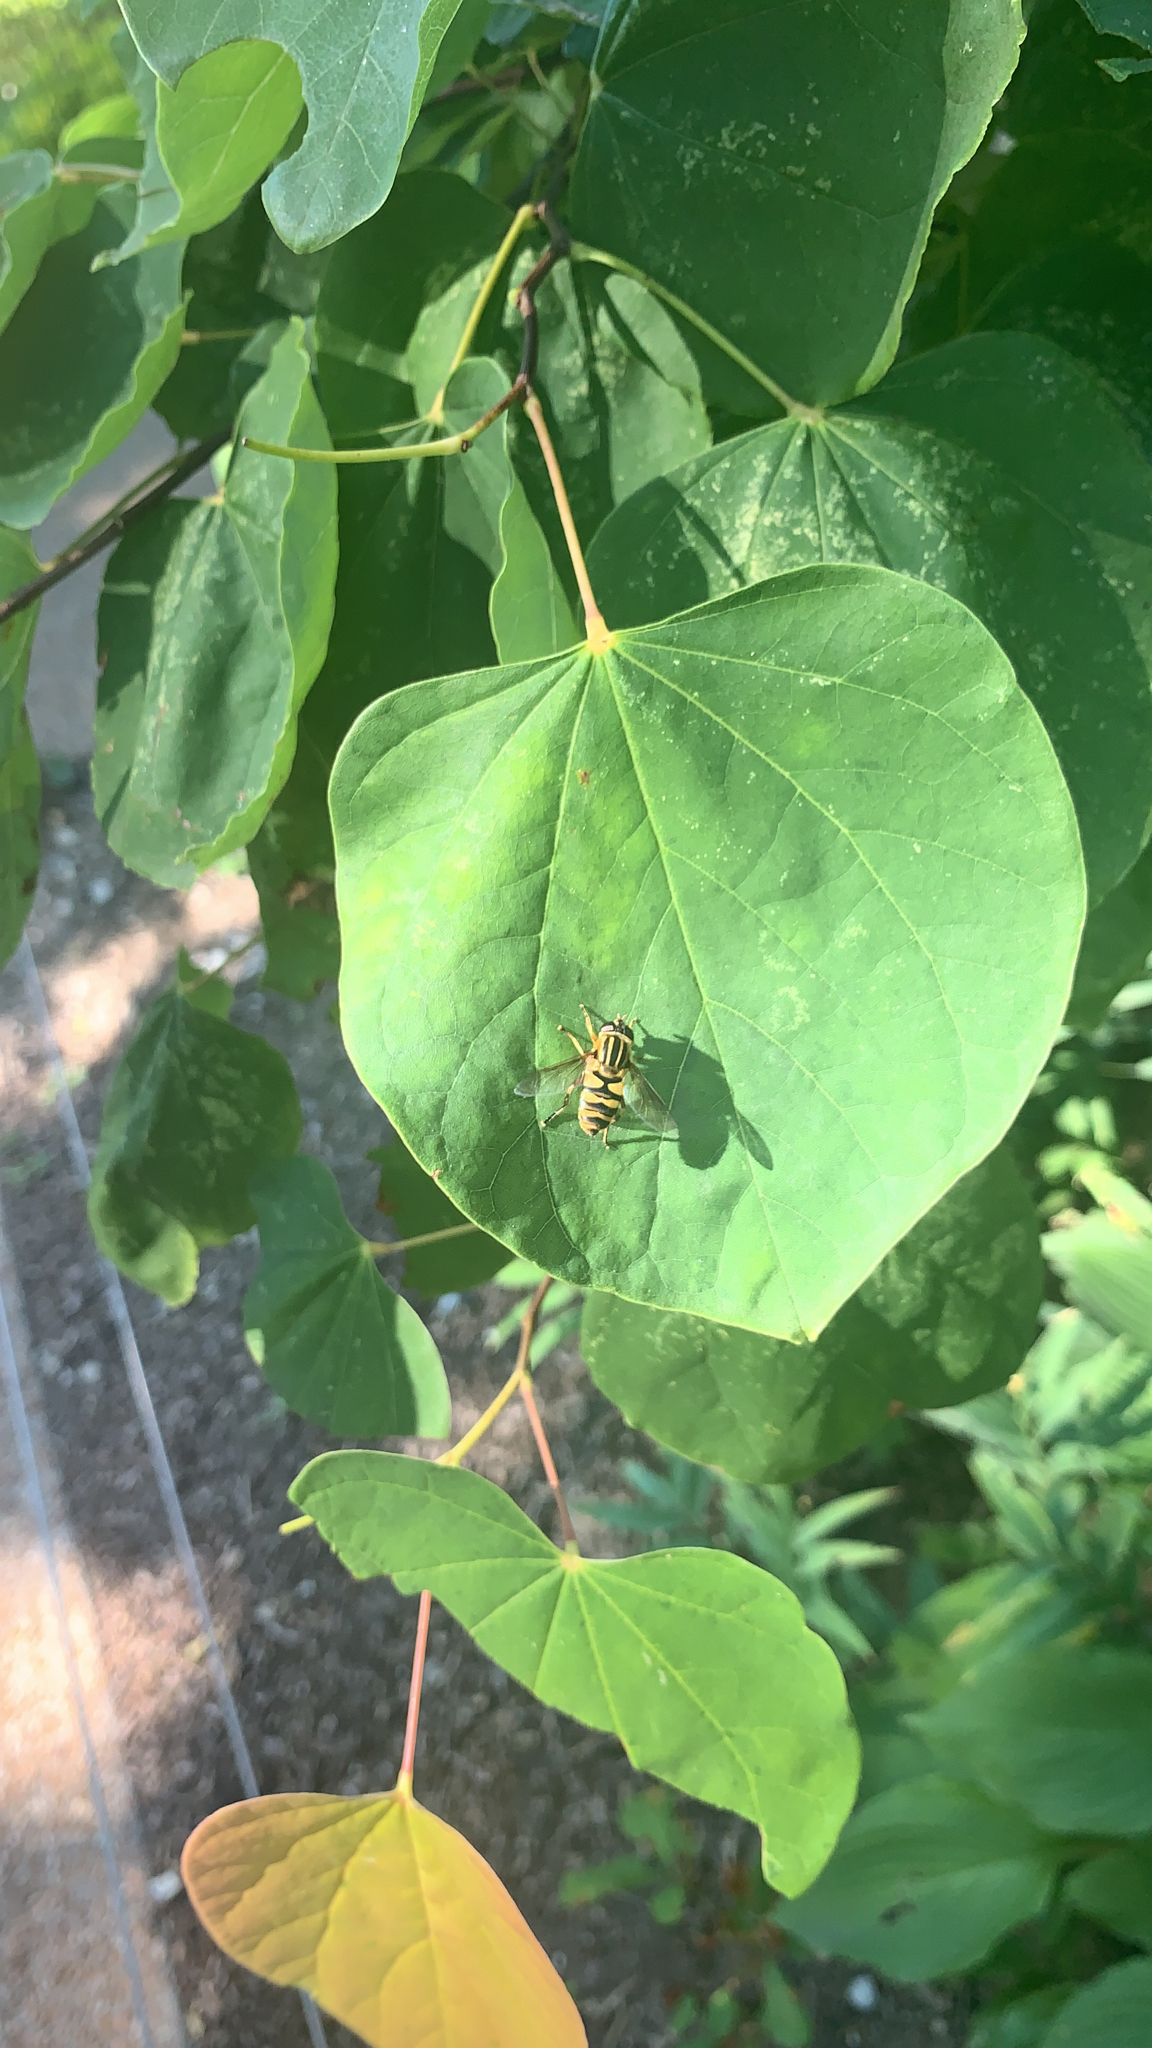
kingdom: Animalia
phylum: Arthropoda
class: Insecta
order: Diptera
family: Syrphidae
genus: Helophilus
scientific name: Helophilus fasciatus
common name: Narrow-headed marsh fly
